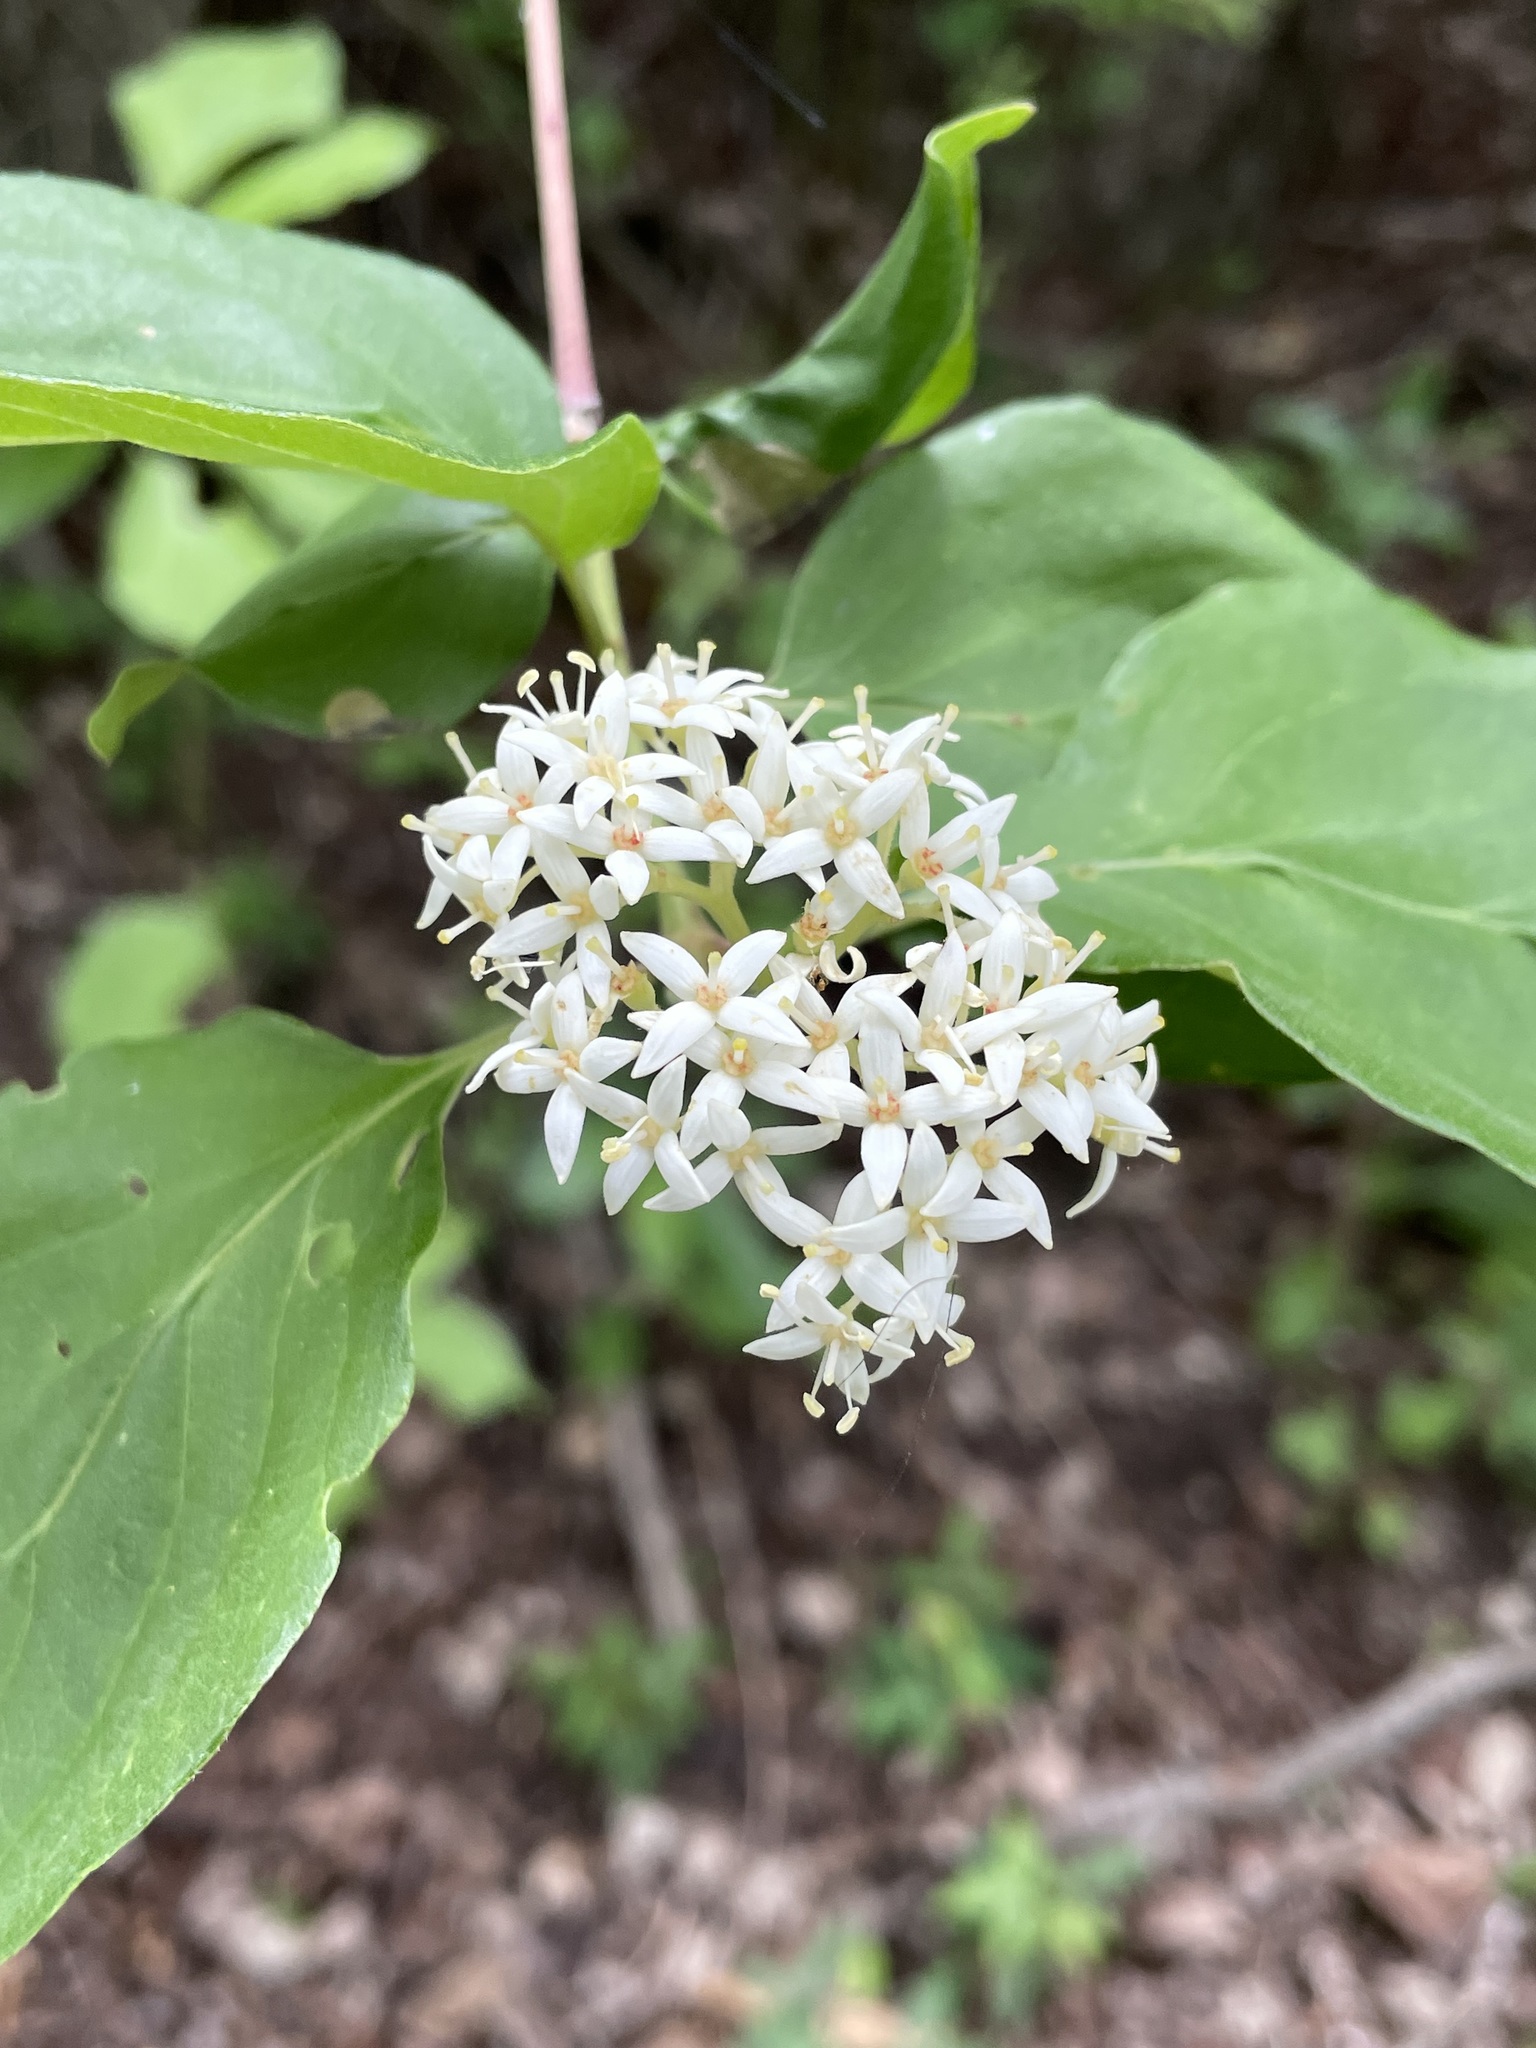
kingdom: Plantae
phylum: Tracheophyta
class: Magnoliopsida
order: Cornales
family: Cornaceae
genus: Cornus
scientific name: Cornus drummondii
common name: Rough-leaf dogwood
